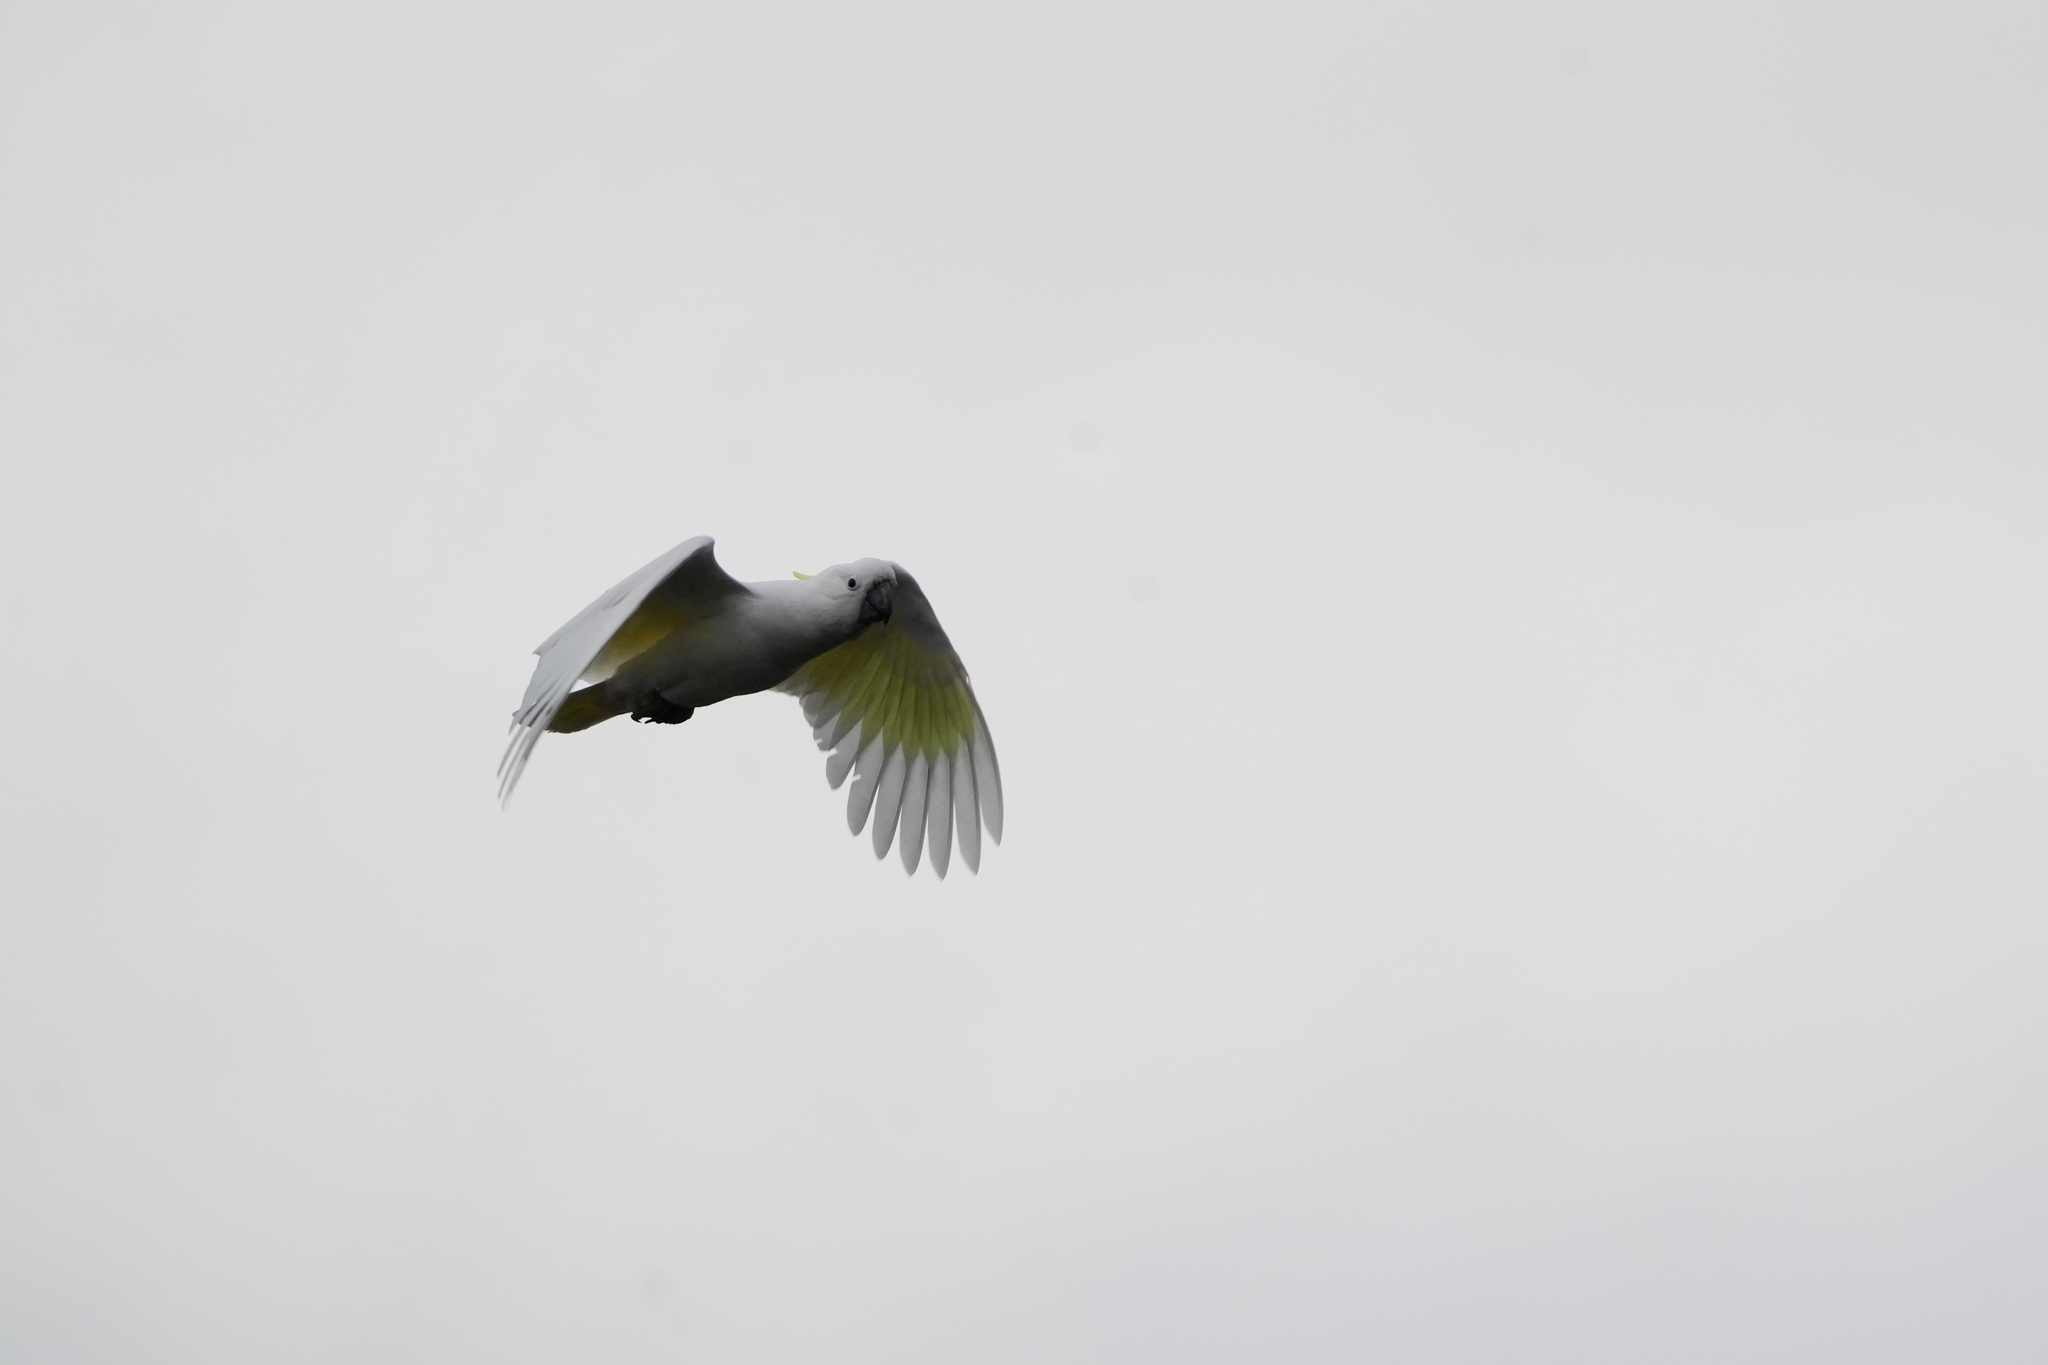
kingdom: Animalia
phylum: Chordata
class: Aves
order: Psittaciformes
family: Psittacidae
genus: Cacatua
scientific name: Cacatua galerita
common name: Sulphur-crested cockatoo
